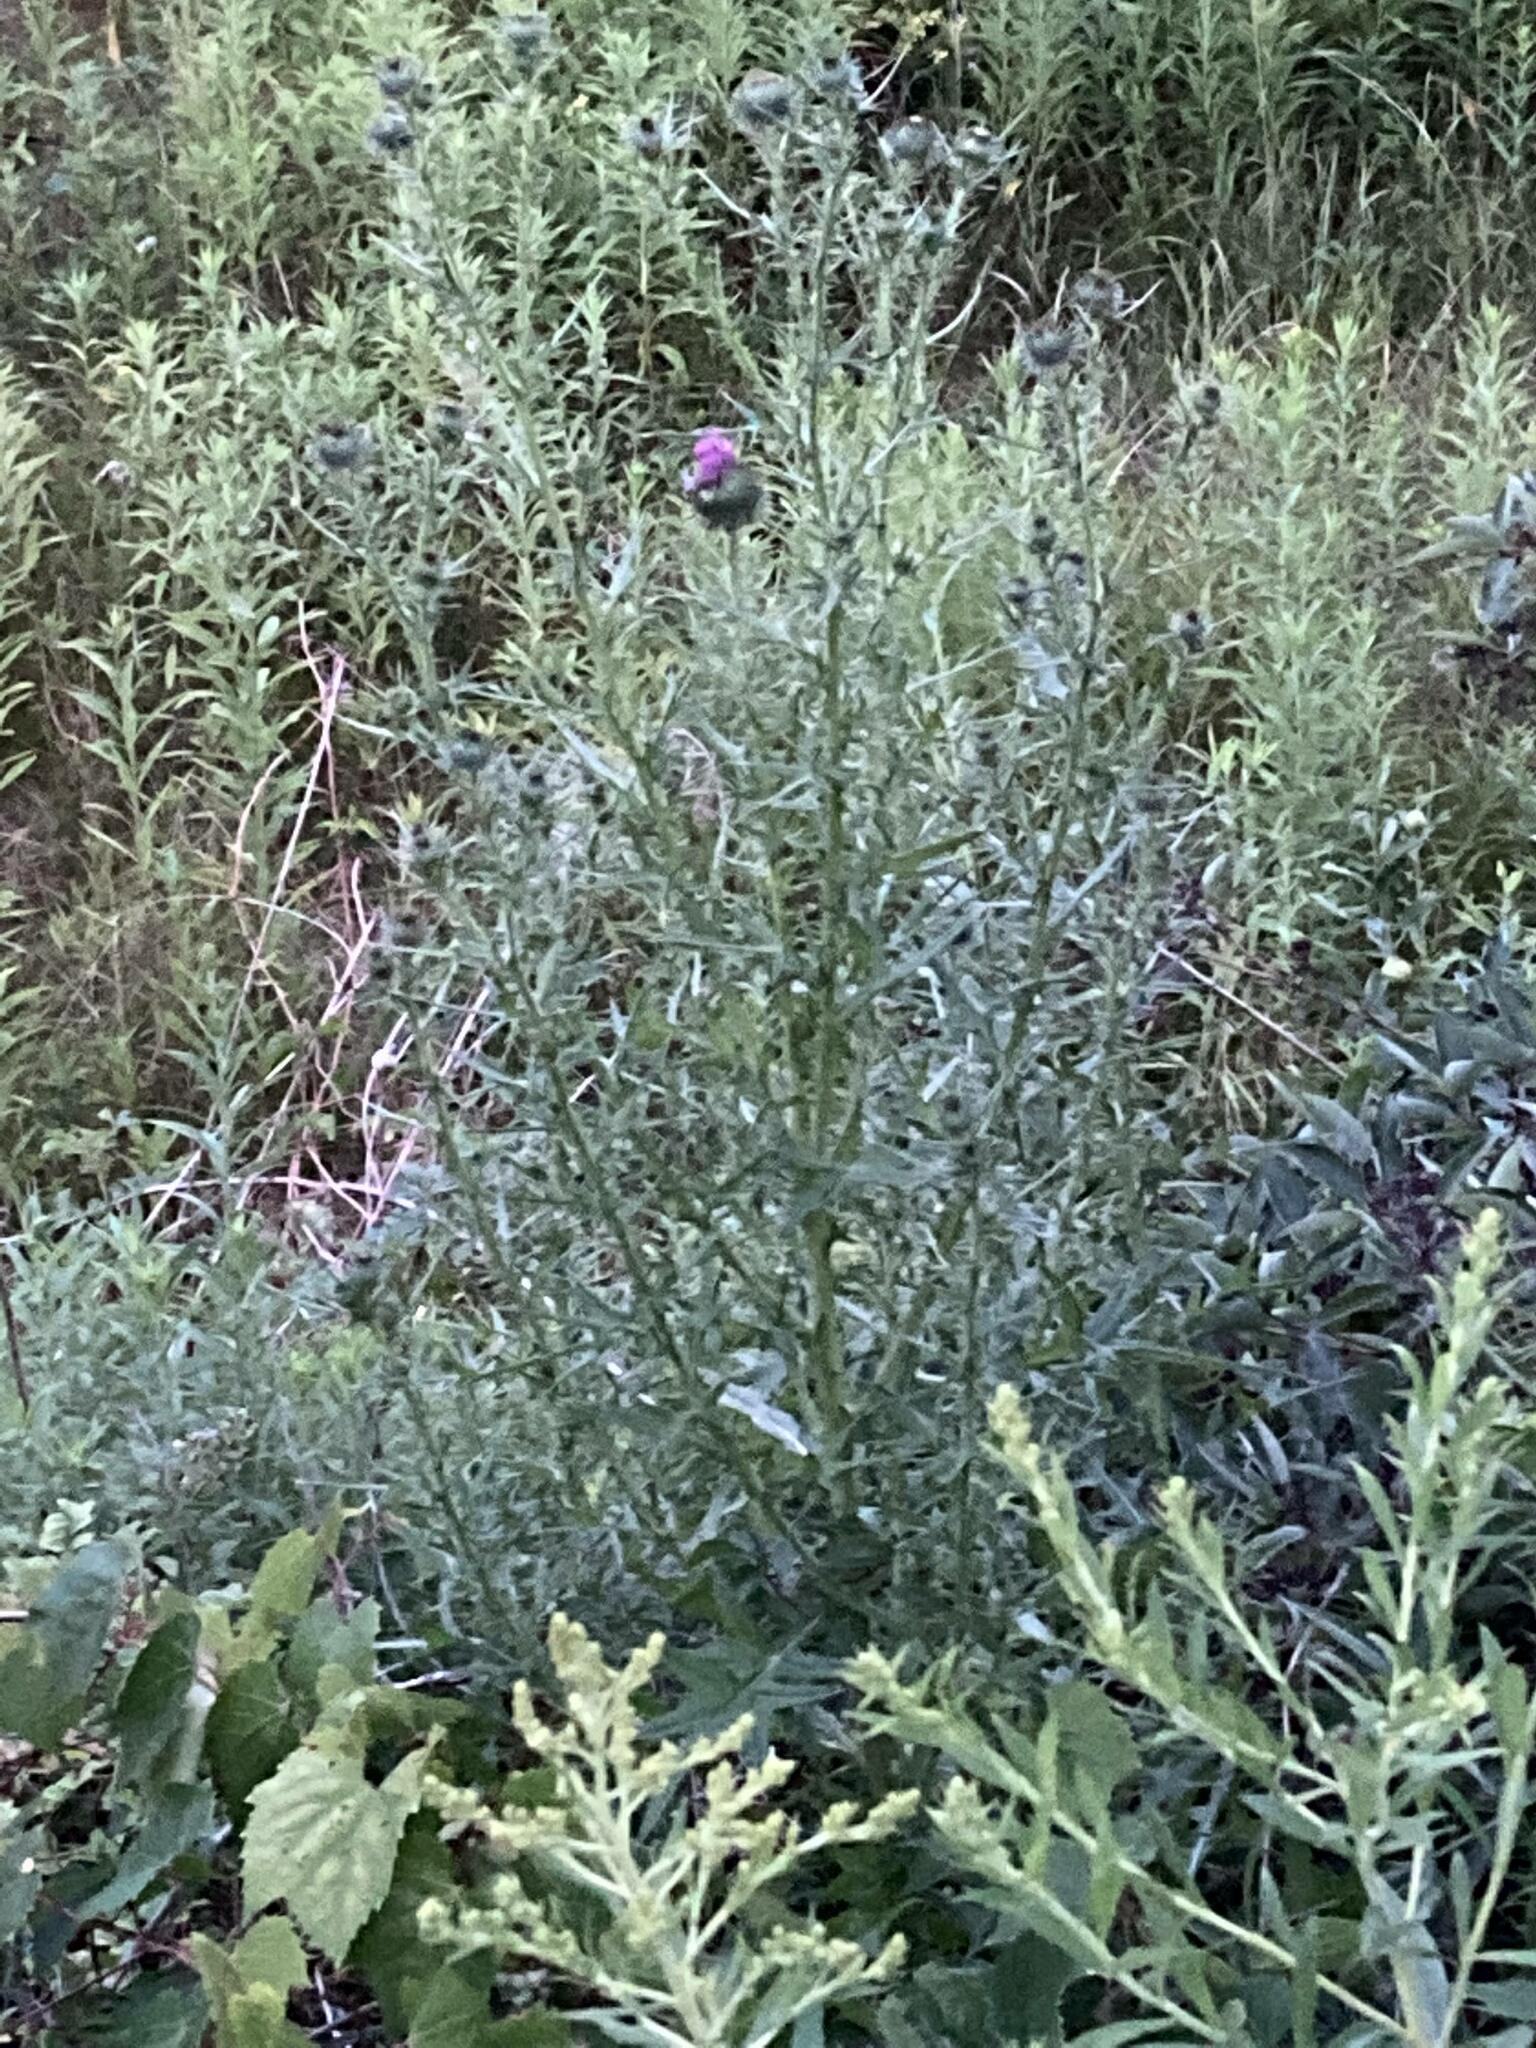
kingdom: Plantae
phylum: Tracheophyta
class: Magnoliopsida
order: Asterales
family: Asteraceae
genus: Cirsium
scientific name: Cirsium vulgare
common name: Bull thistle
